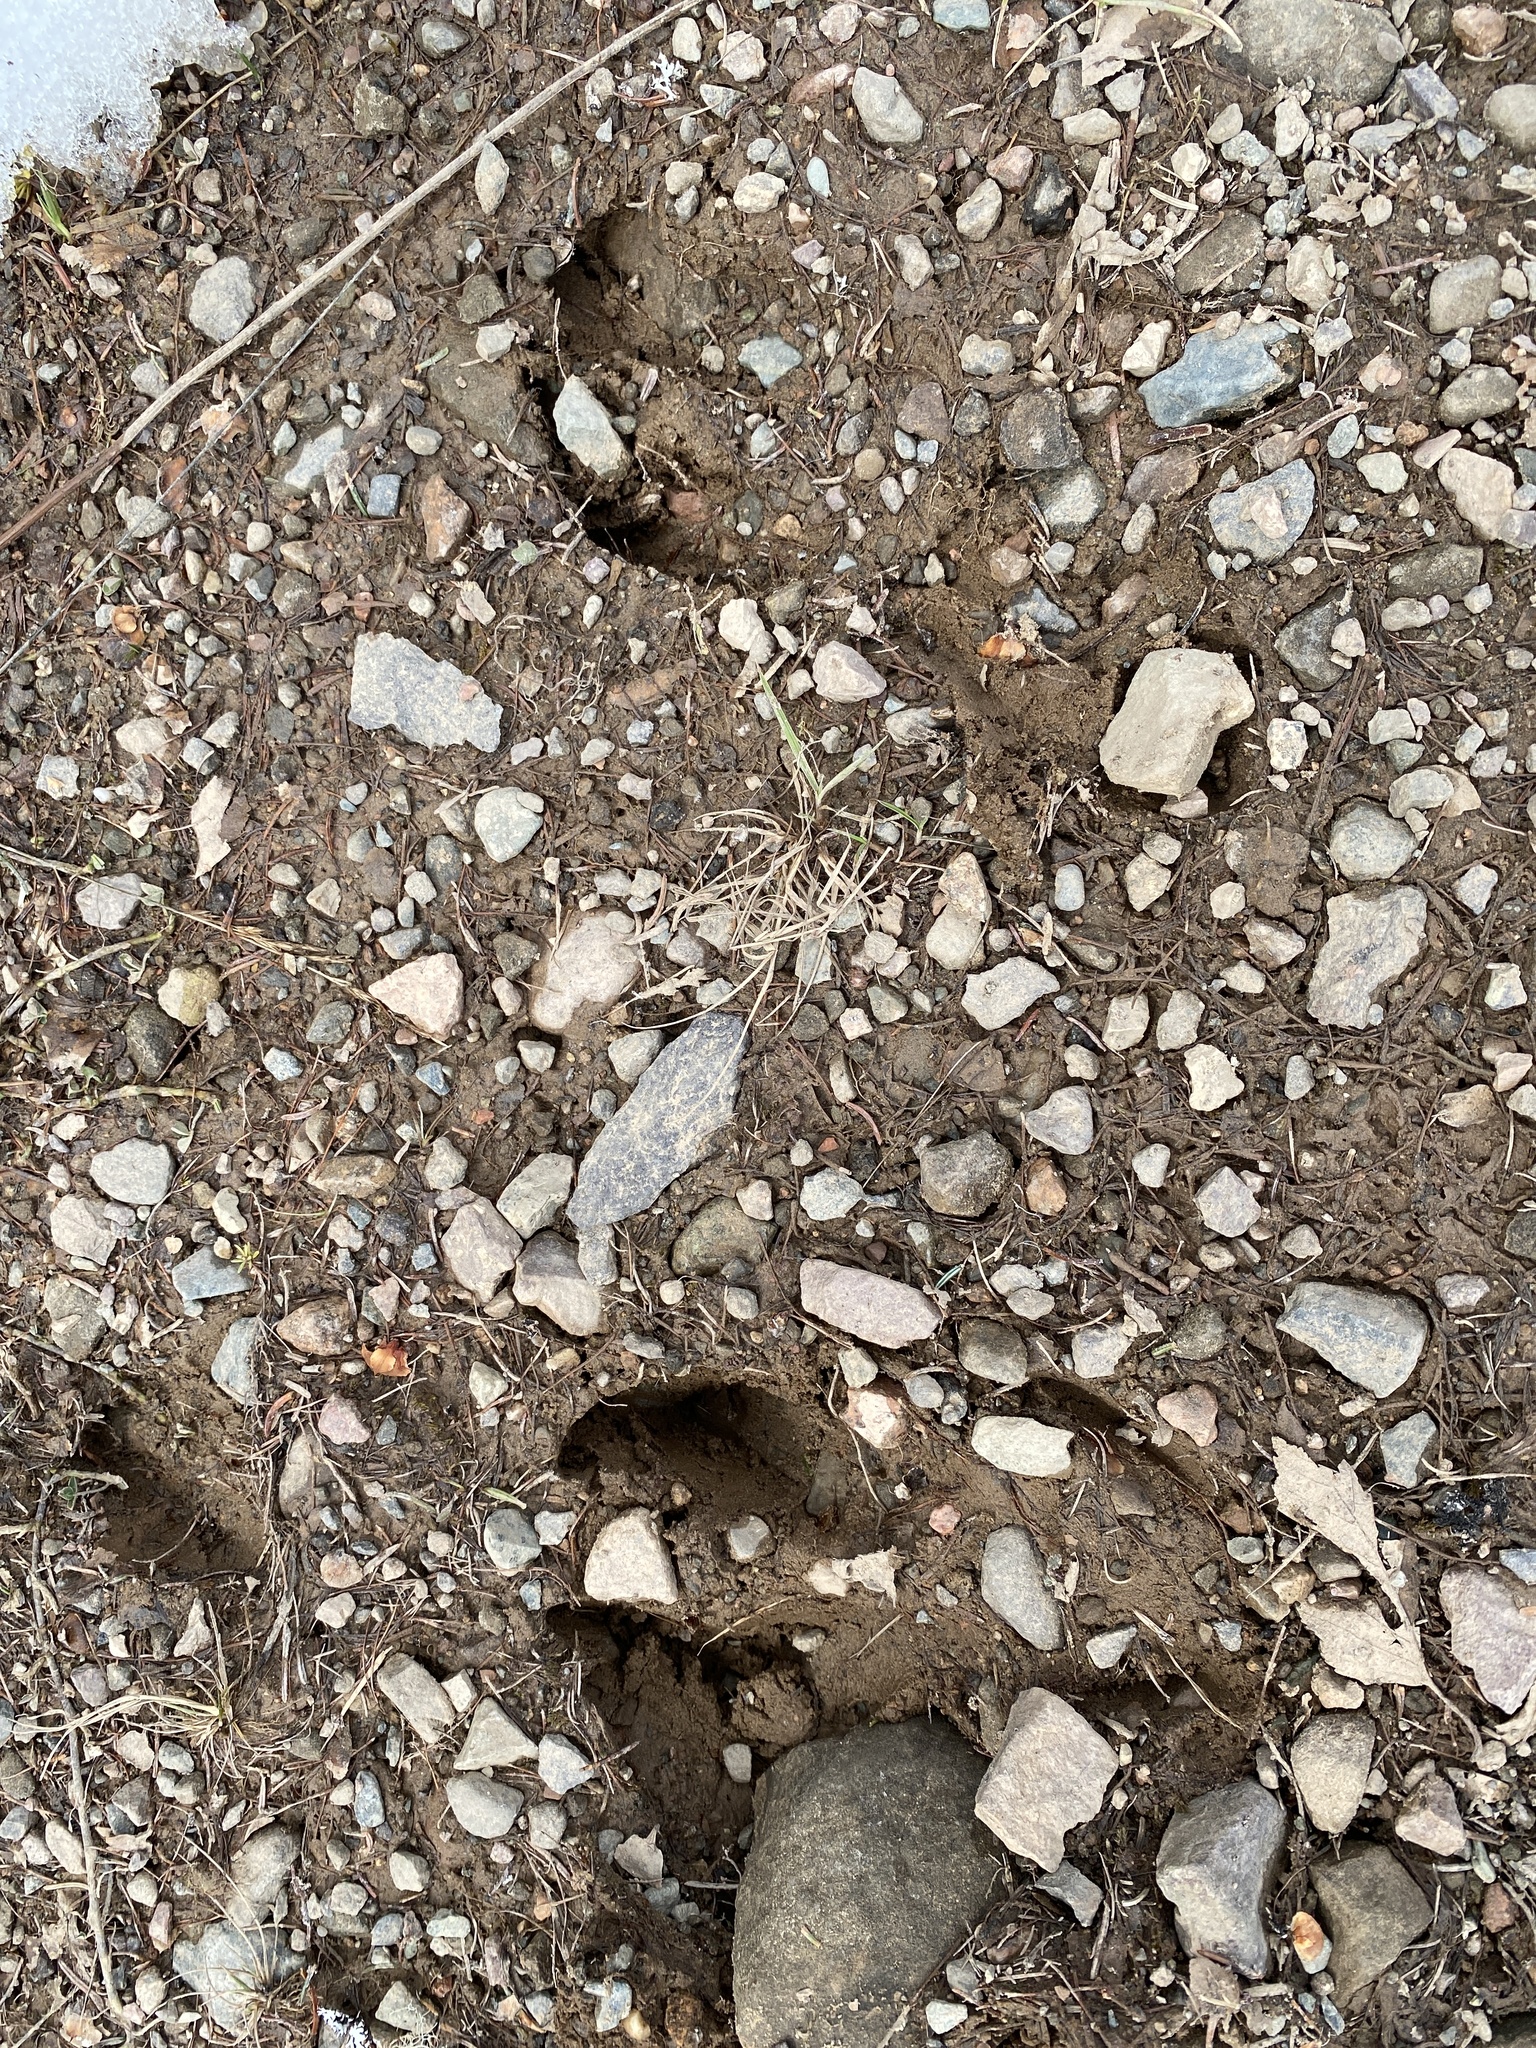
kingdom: Animalia
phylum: Chordata
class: Mammalia
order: Artiodactyla
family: Cervidae
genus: Odocoileus
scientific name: Odocoileus virginianus
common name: White-tailed deer
